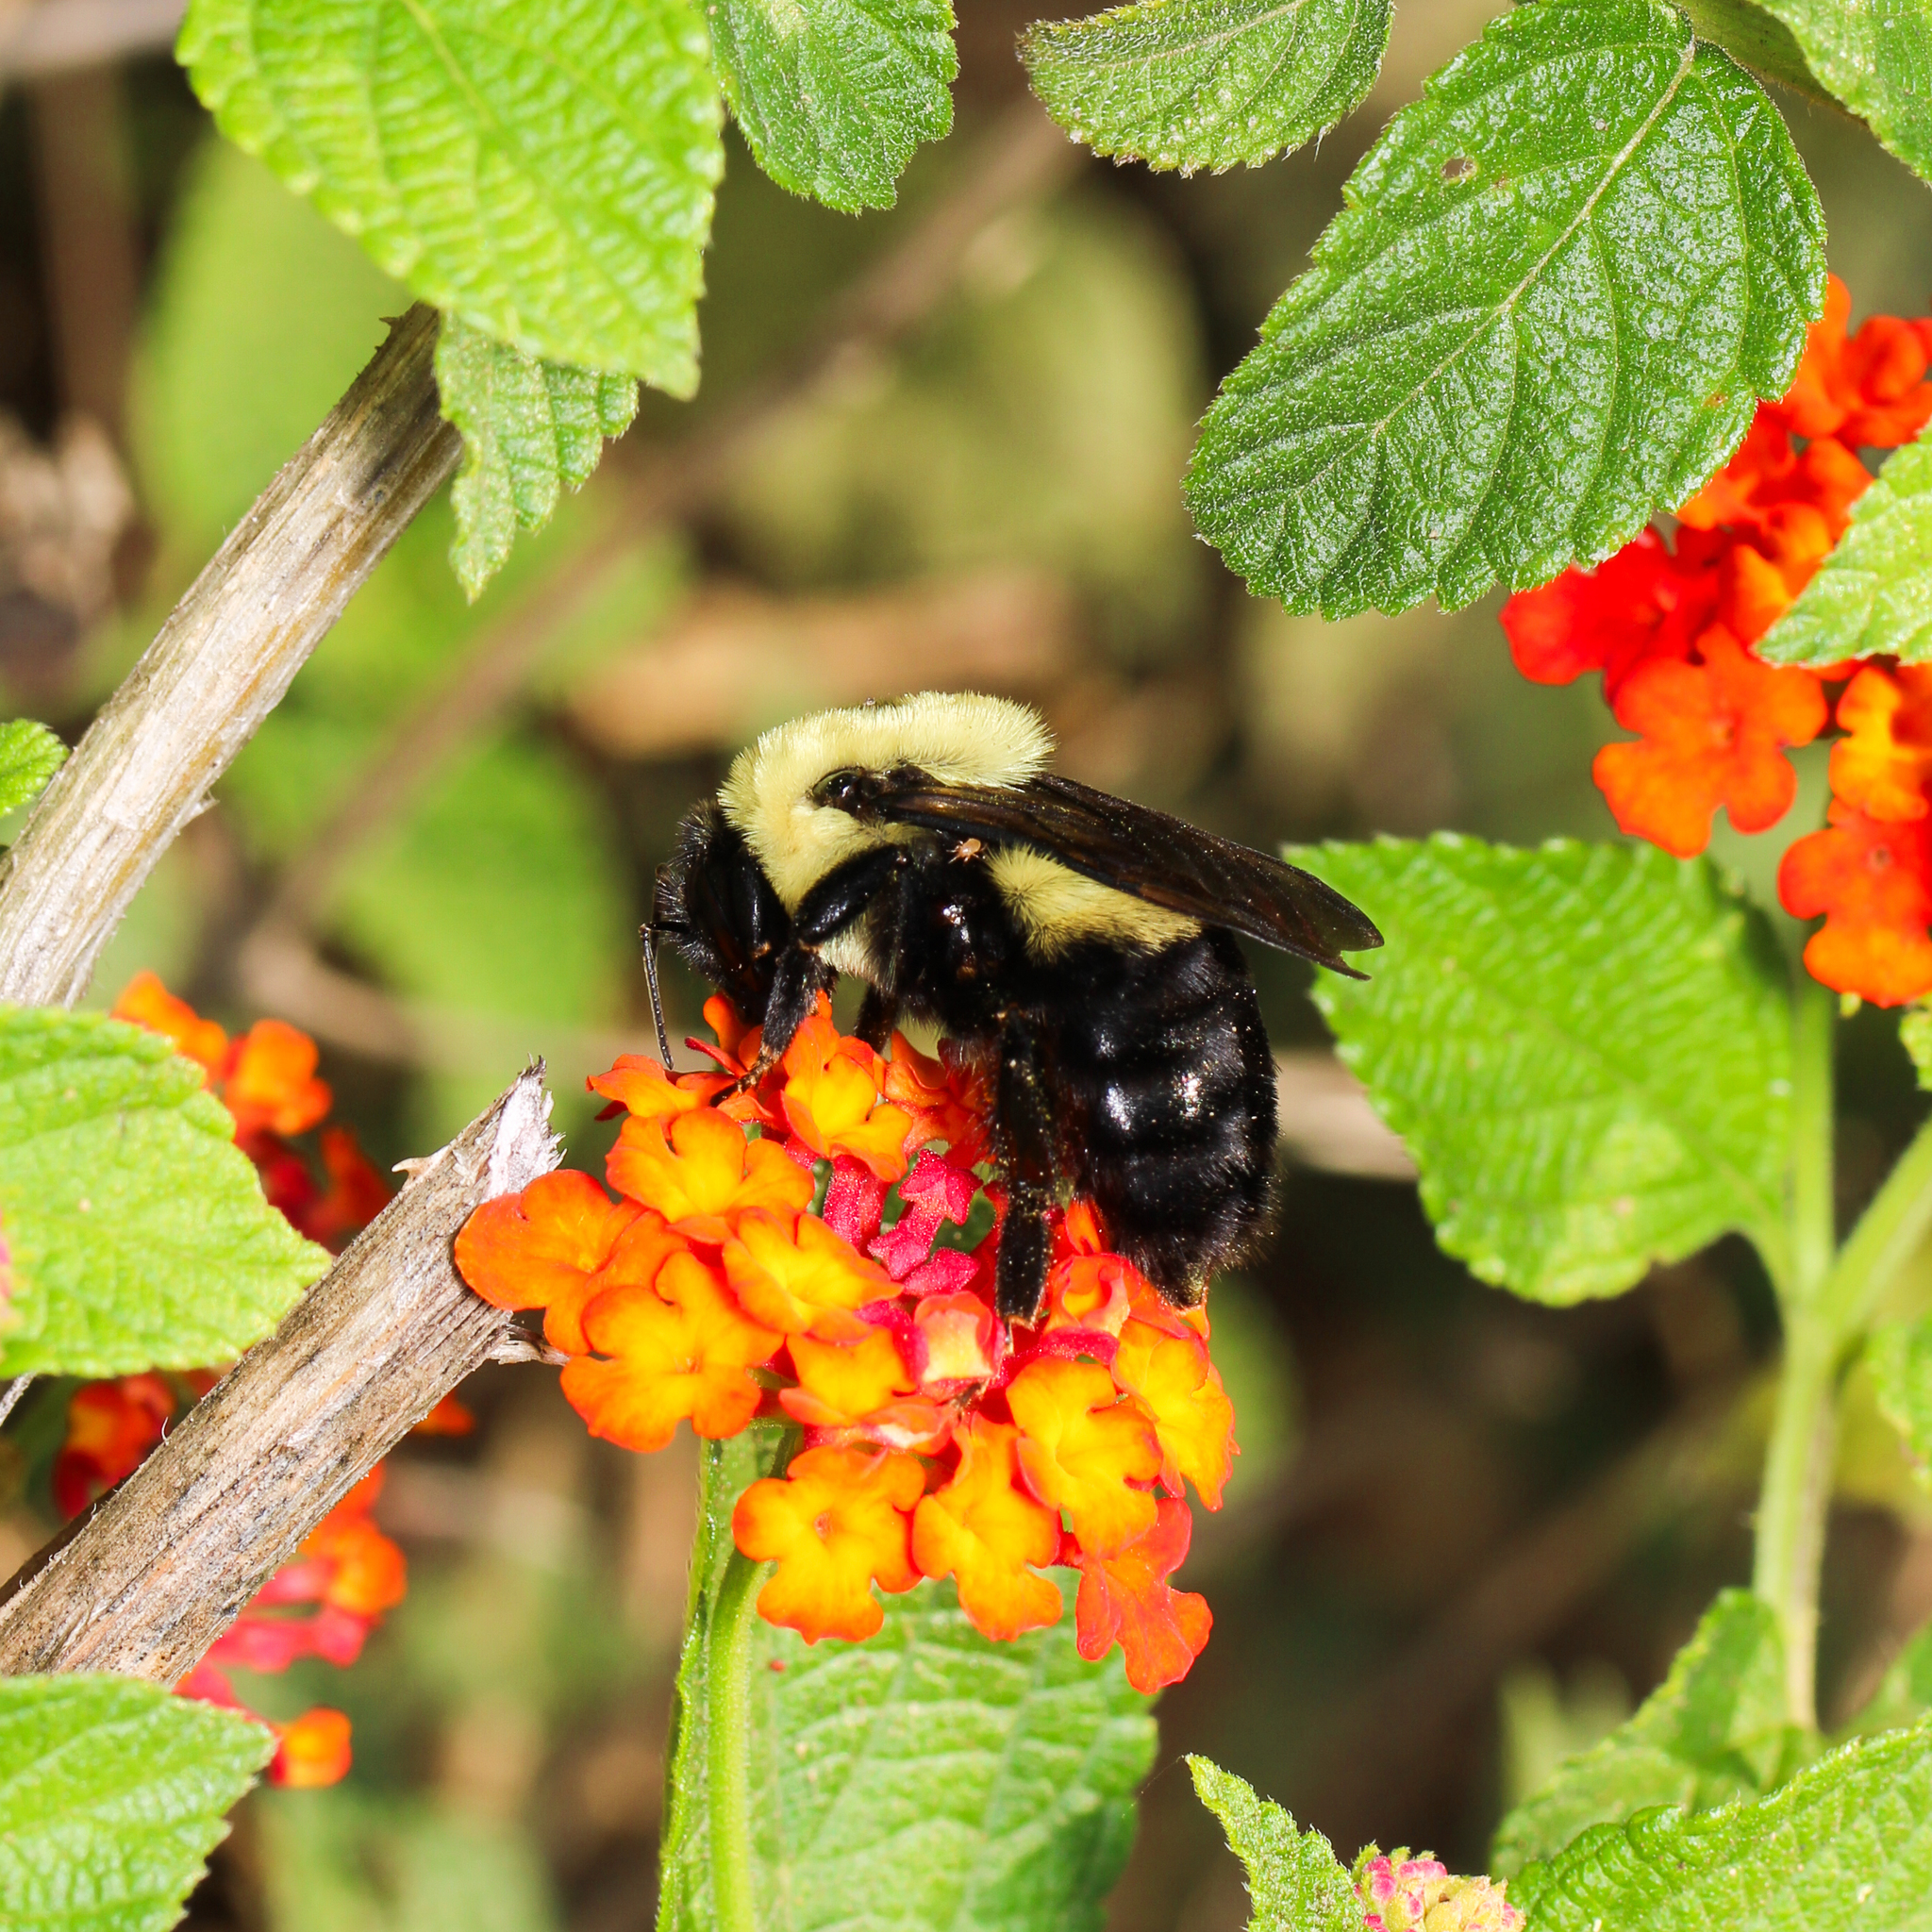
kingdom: Animalia
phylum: Arthropoda
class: Insecta
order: Hymenoptera
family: Apidae
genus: Bombus
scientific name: Bombus griseocollis
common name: Brown-belted bumble bee
